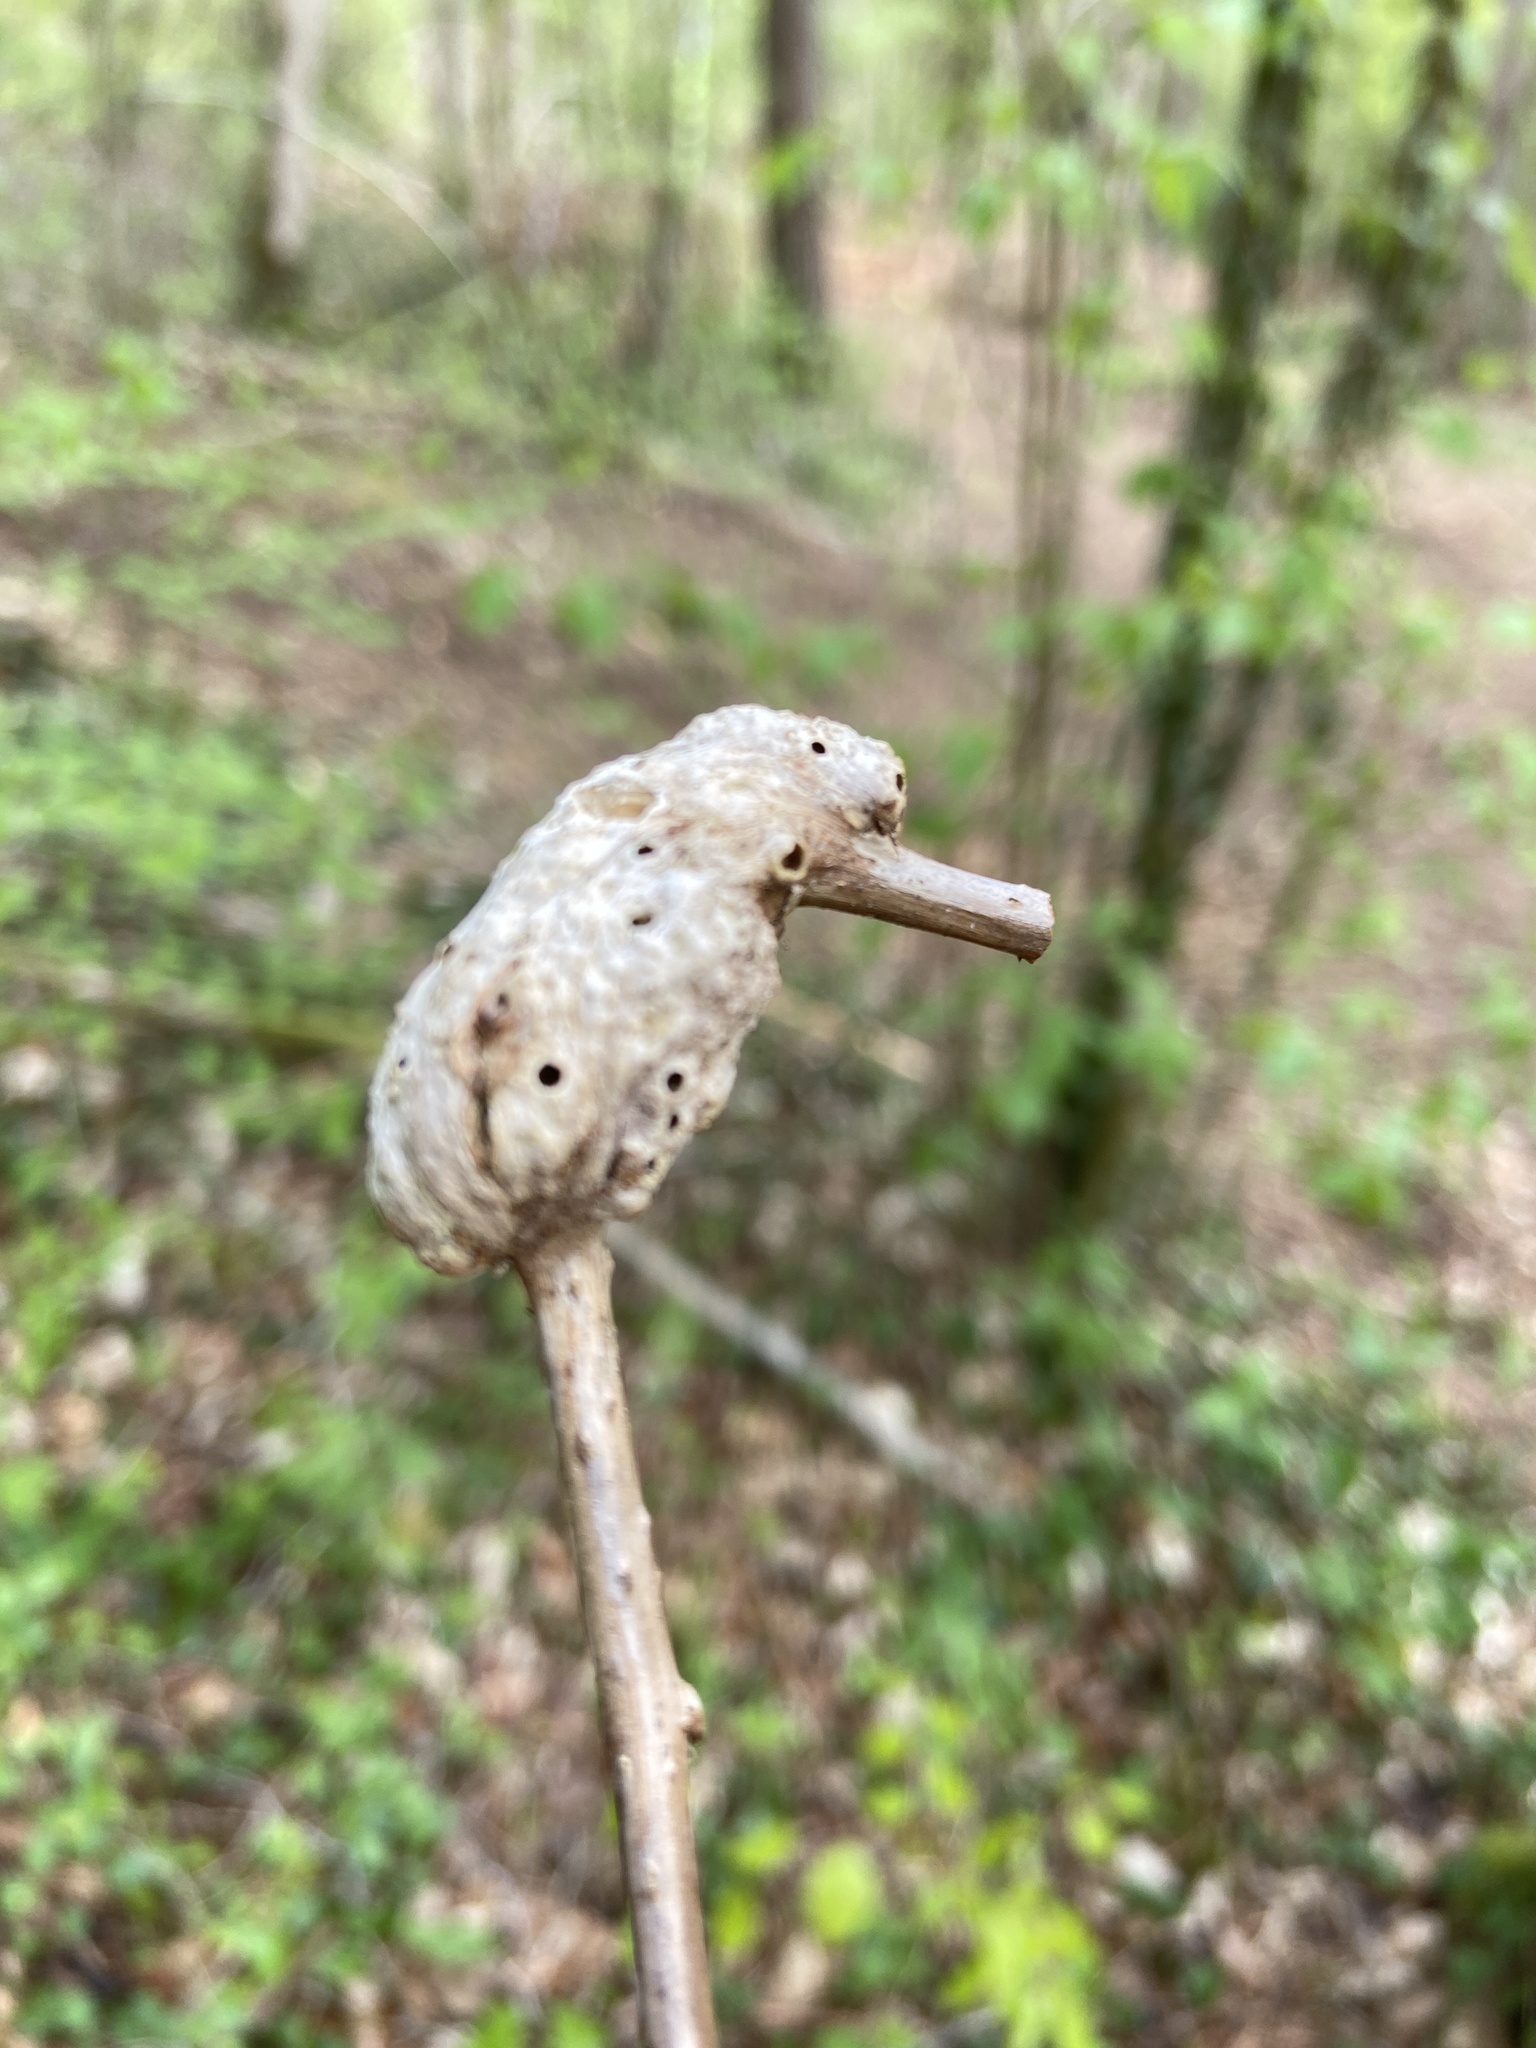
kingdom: Animalia
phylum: Arthropoda
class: Insecta
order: Hymenoptera
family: Cynipidae
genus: Diastrophus
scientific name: Diastrophus rubi
